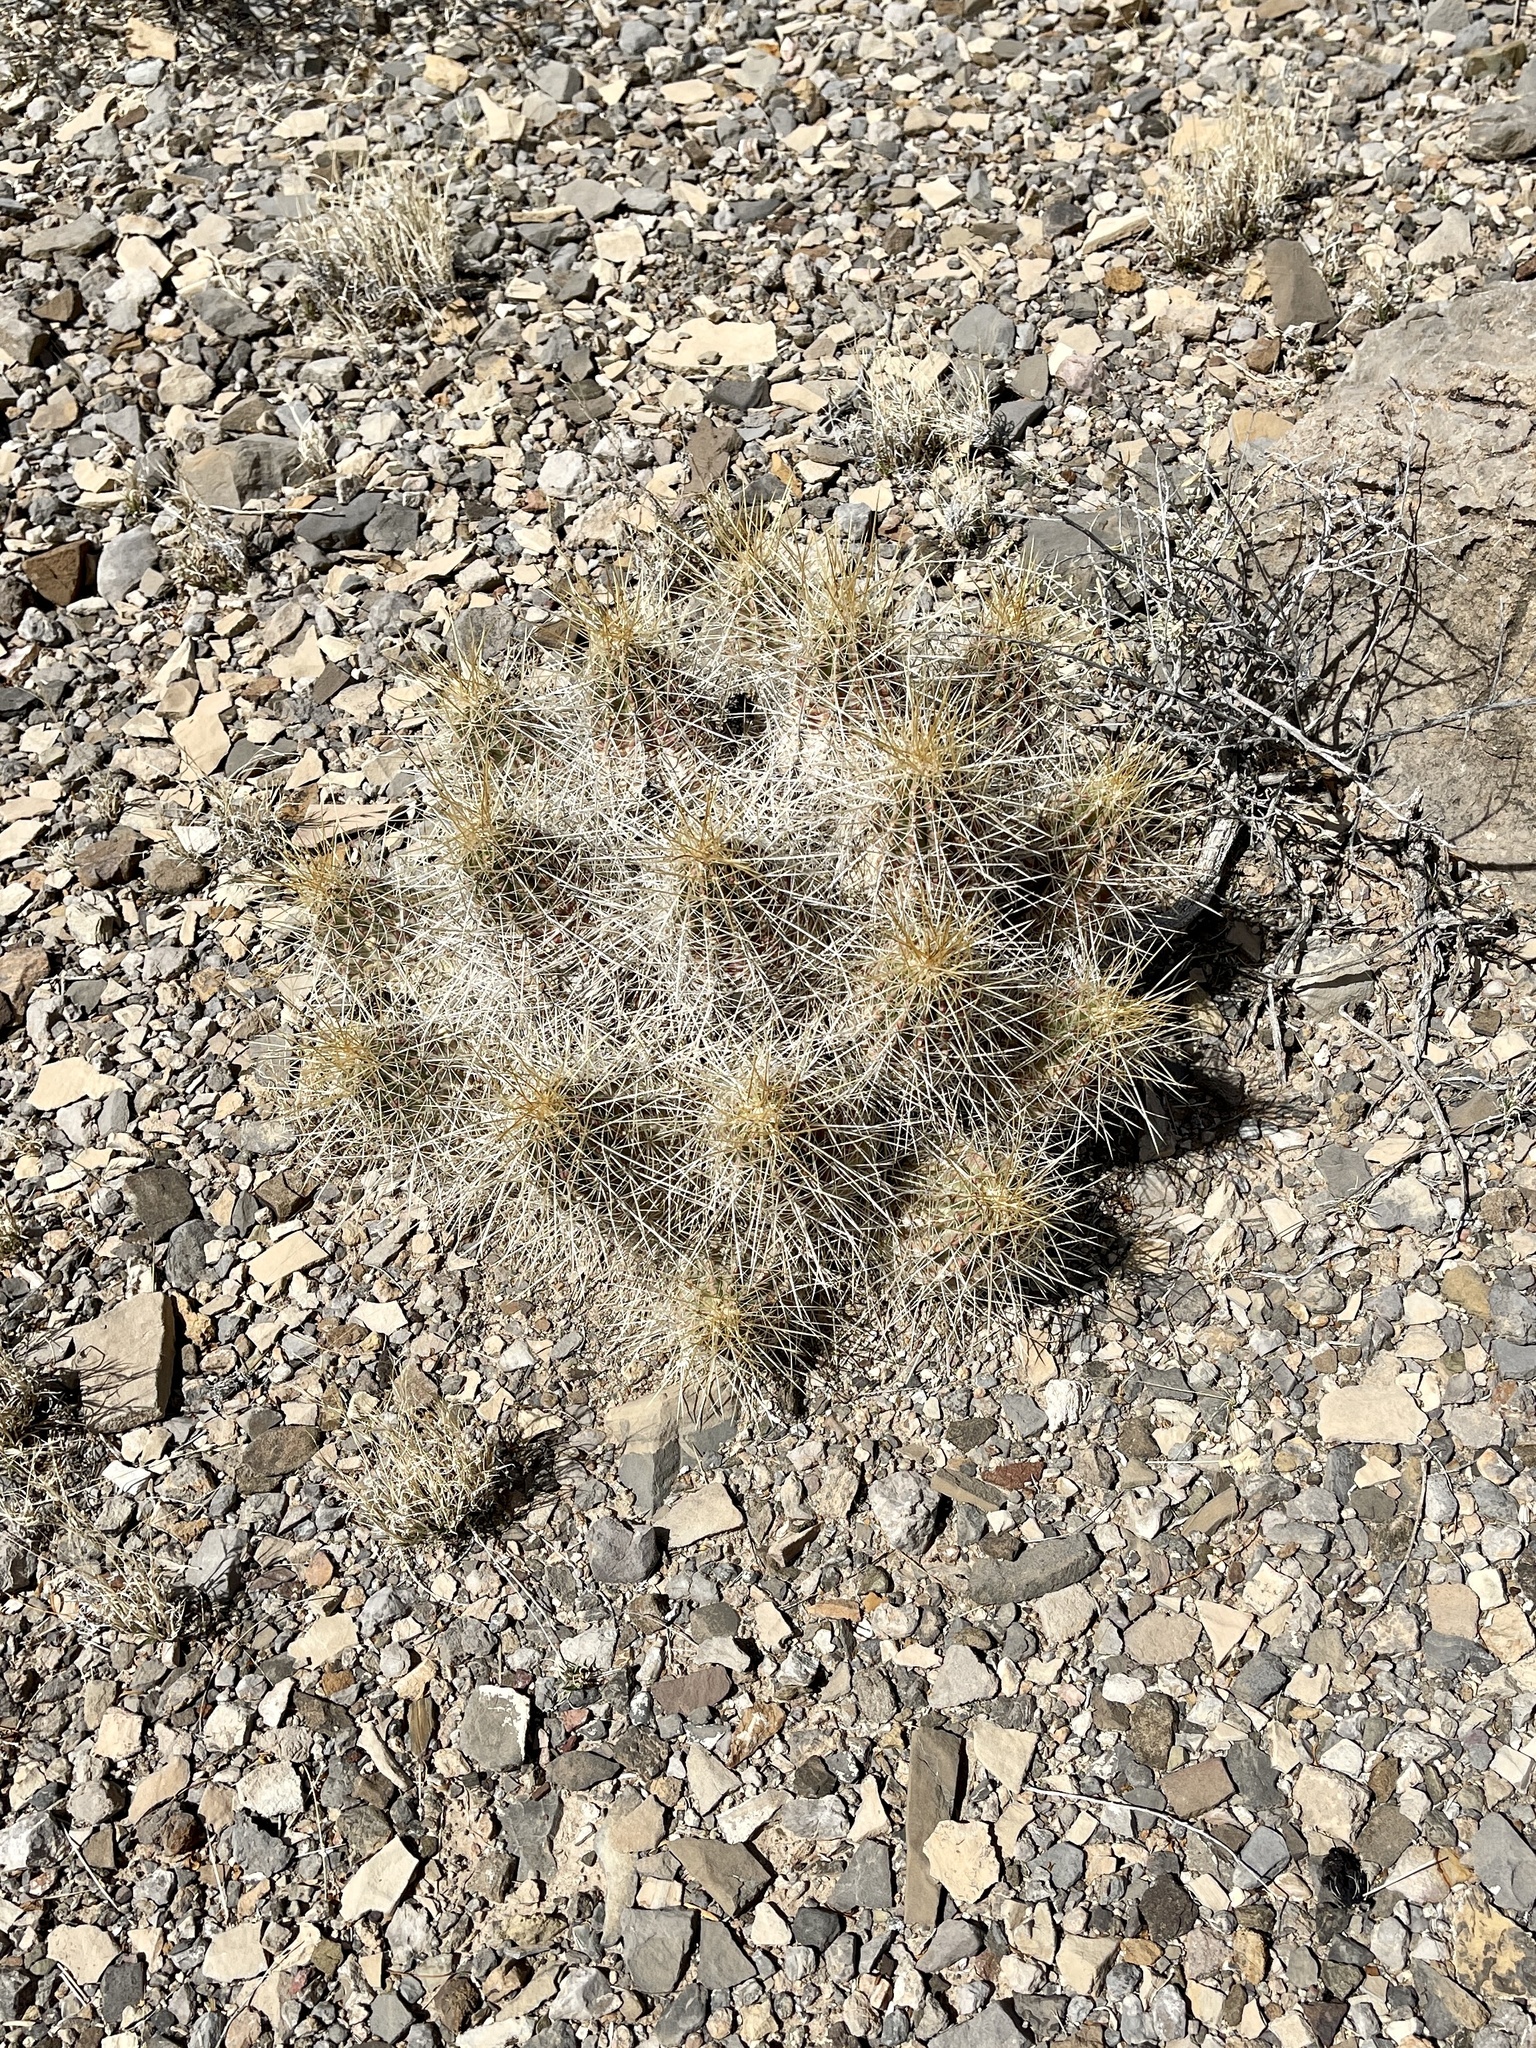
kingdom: Plantae
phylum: Tracheophyta
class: Magnoliopsida
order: Caryophyllales
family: Cactaceae
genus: Echinocereus
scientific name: Echinocereus stramineus
